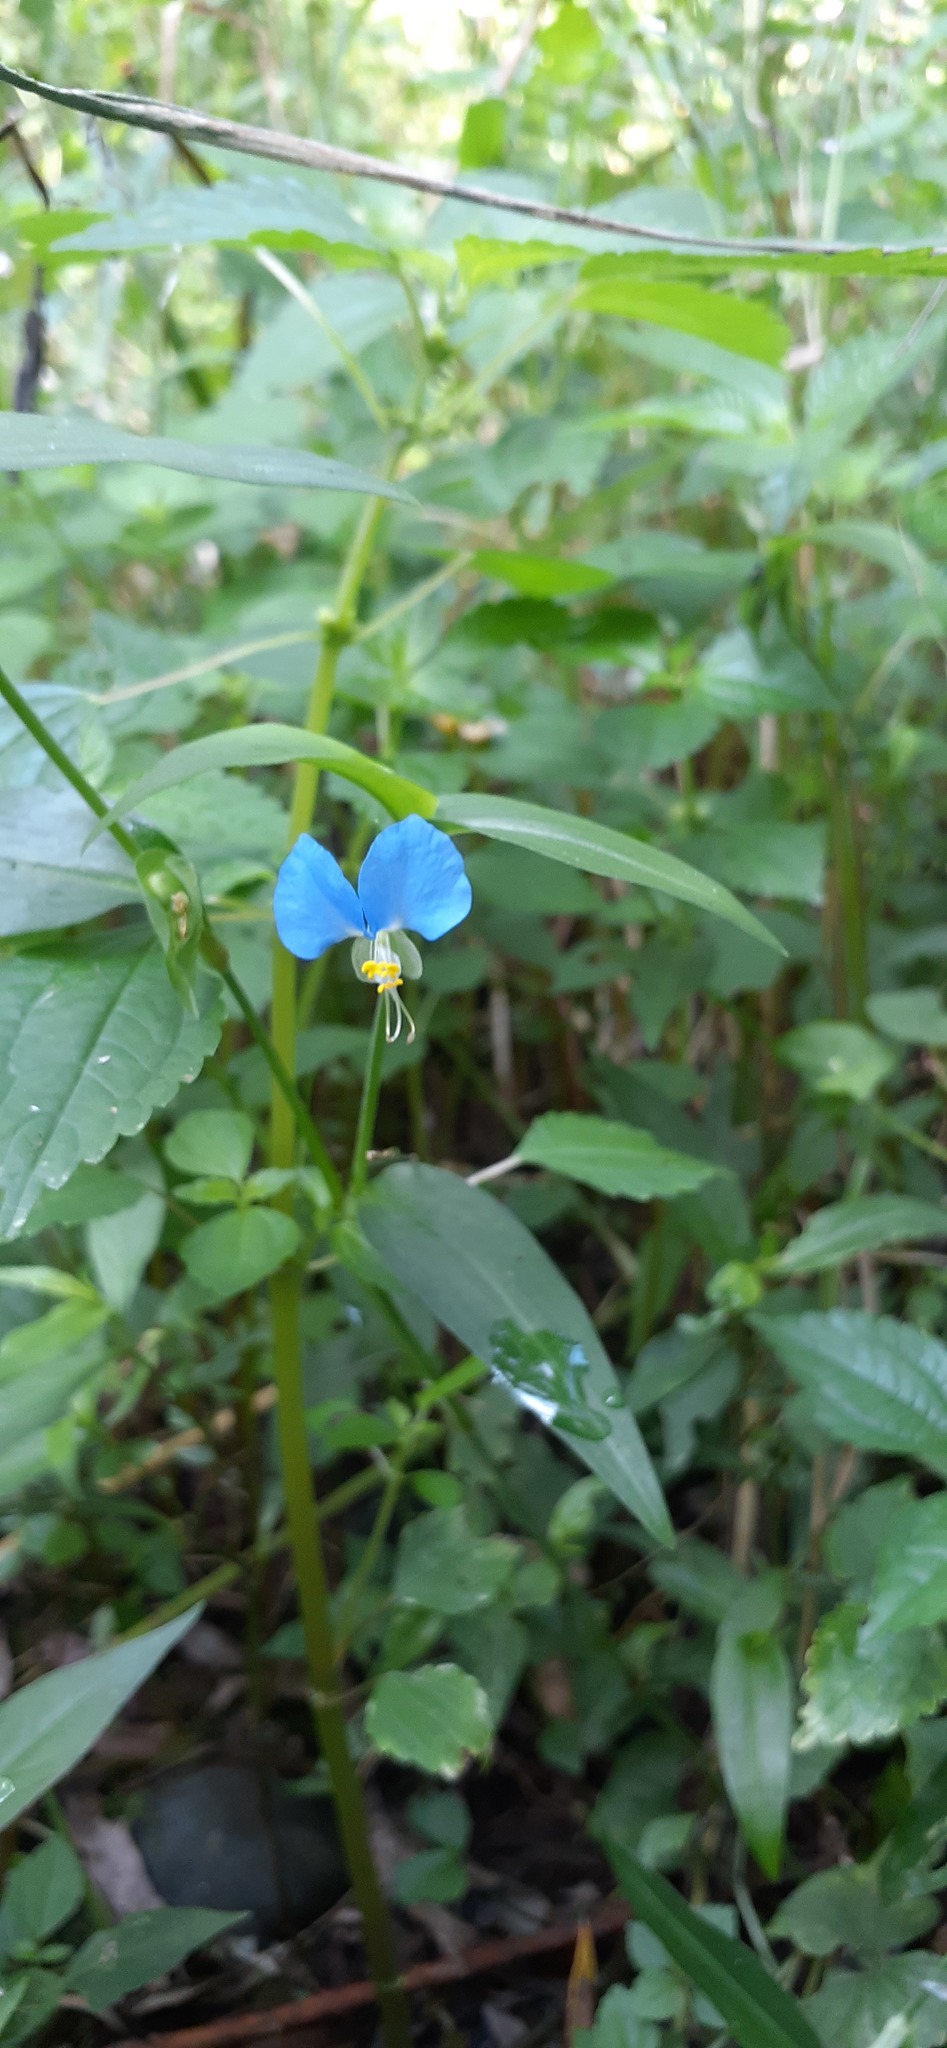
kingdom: Plantae
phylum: Tracheophyta
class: Liliopsida
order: Commelinales
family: Commelinaceae
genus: Commelina
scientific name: Commelina communis
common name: Asiatic dayflower
